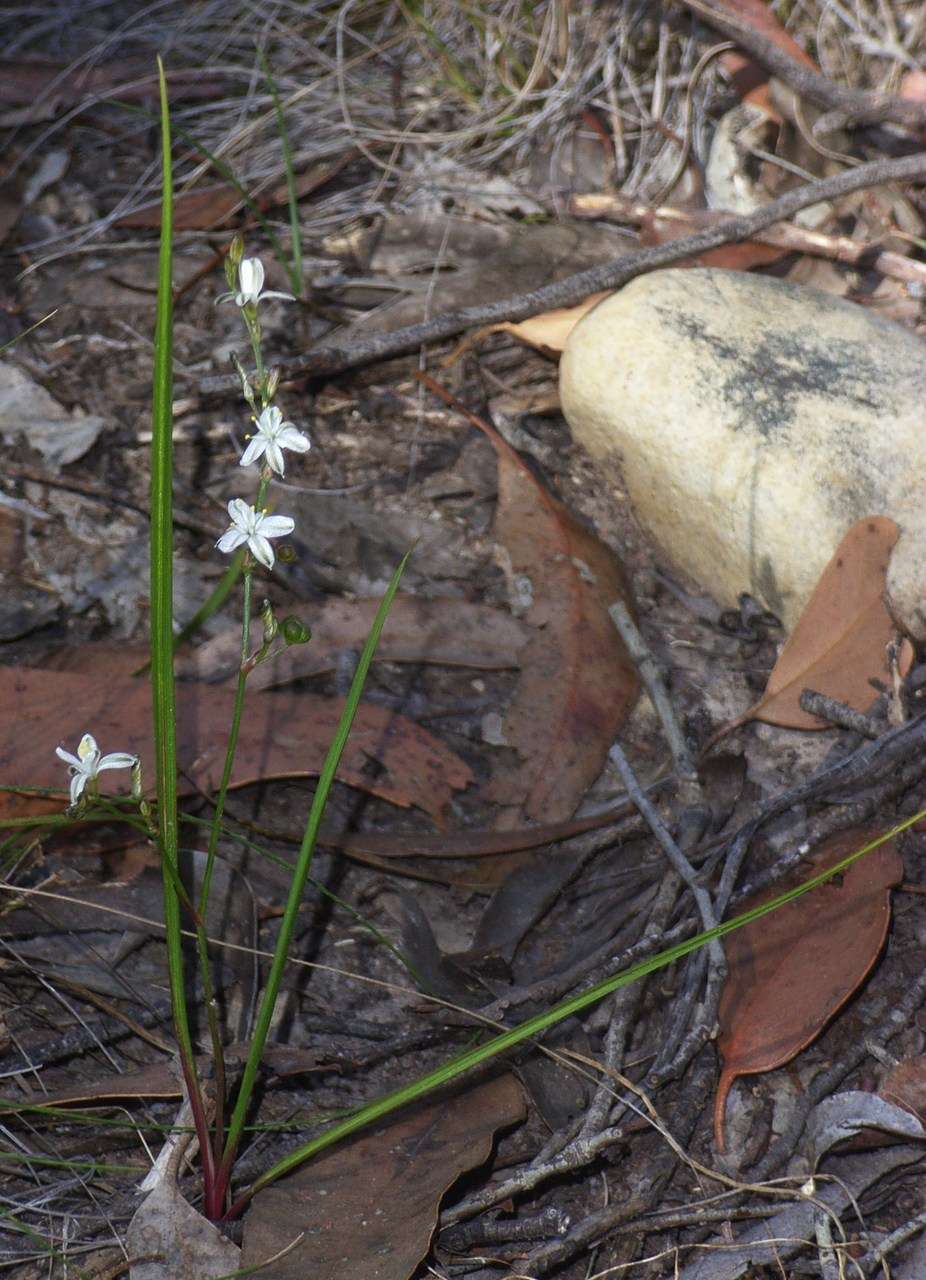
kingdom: Plantae
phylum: Tracheophyta
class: Liliopsida
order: Asparagales
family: Asphodelaceae
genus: Caesia
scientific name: Caesia parviflora
